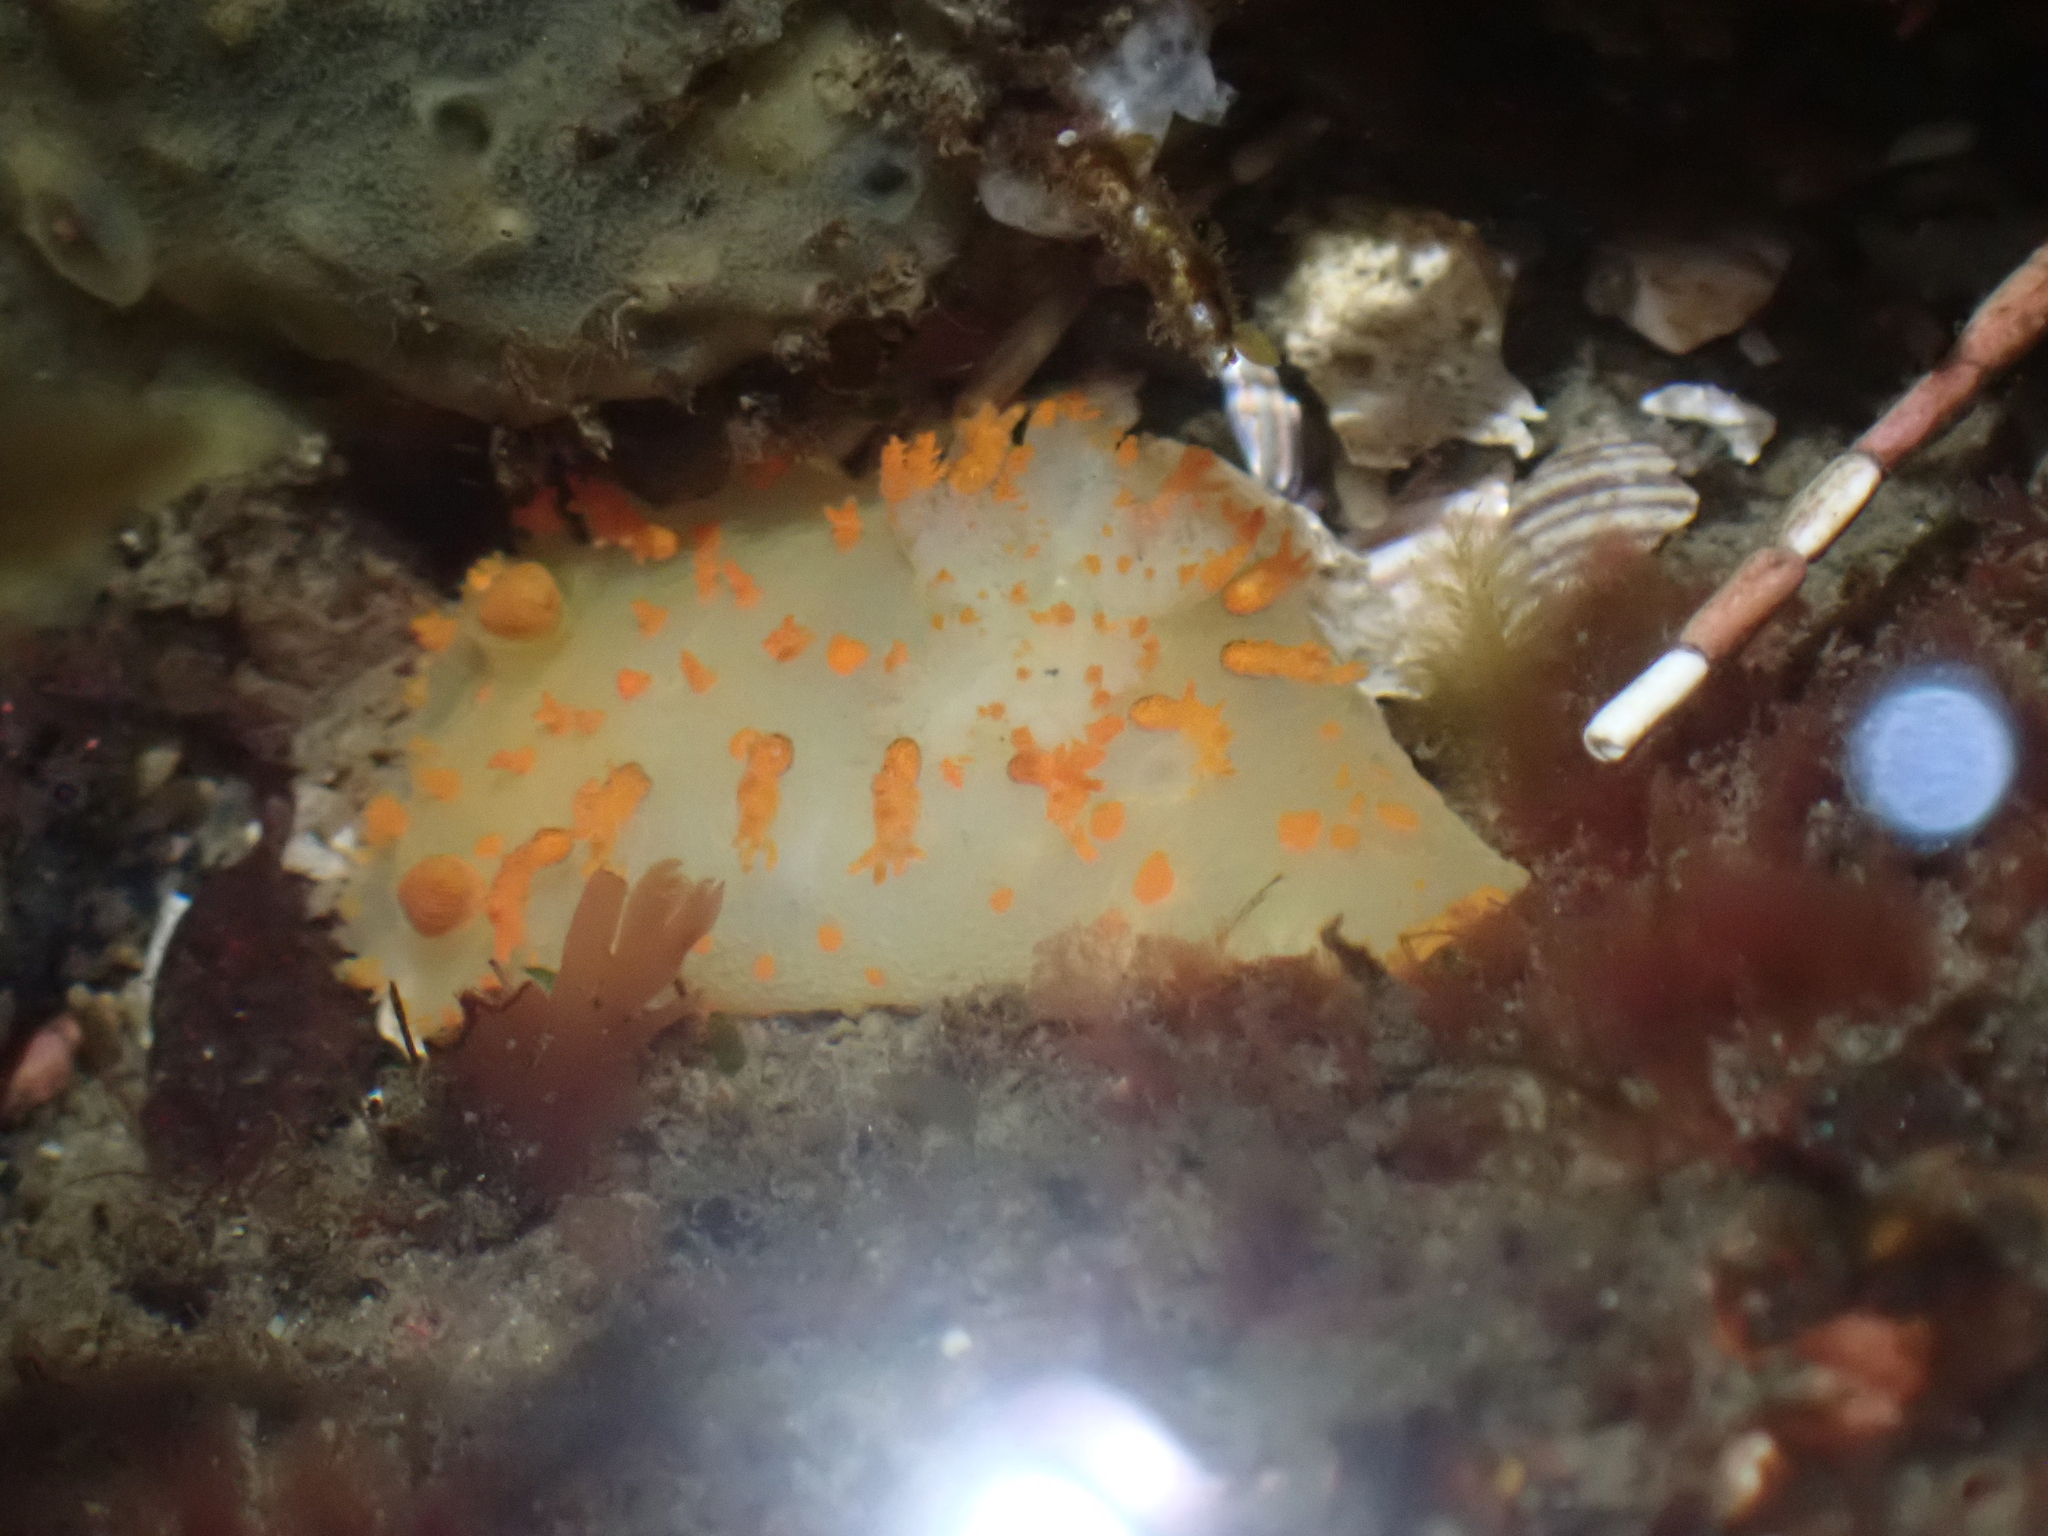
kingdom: Animalia
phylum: Mollusca
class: Gastropoda
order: Nudibranchia
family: Polyceridae
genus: Triopha
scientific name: Triopha modesta
